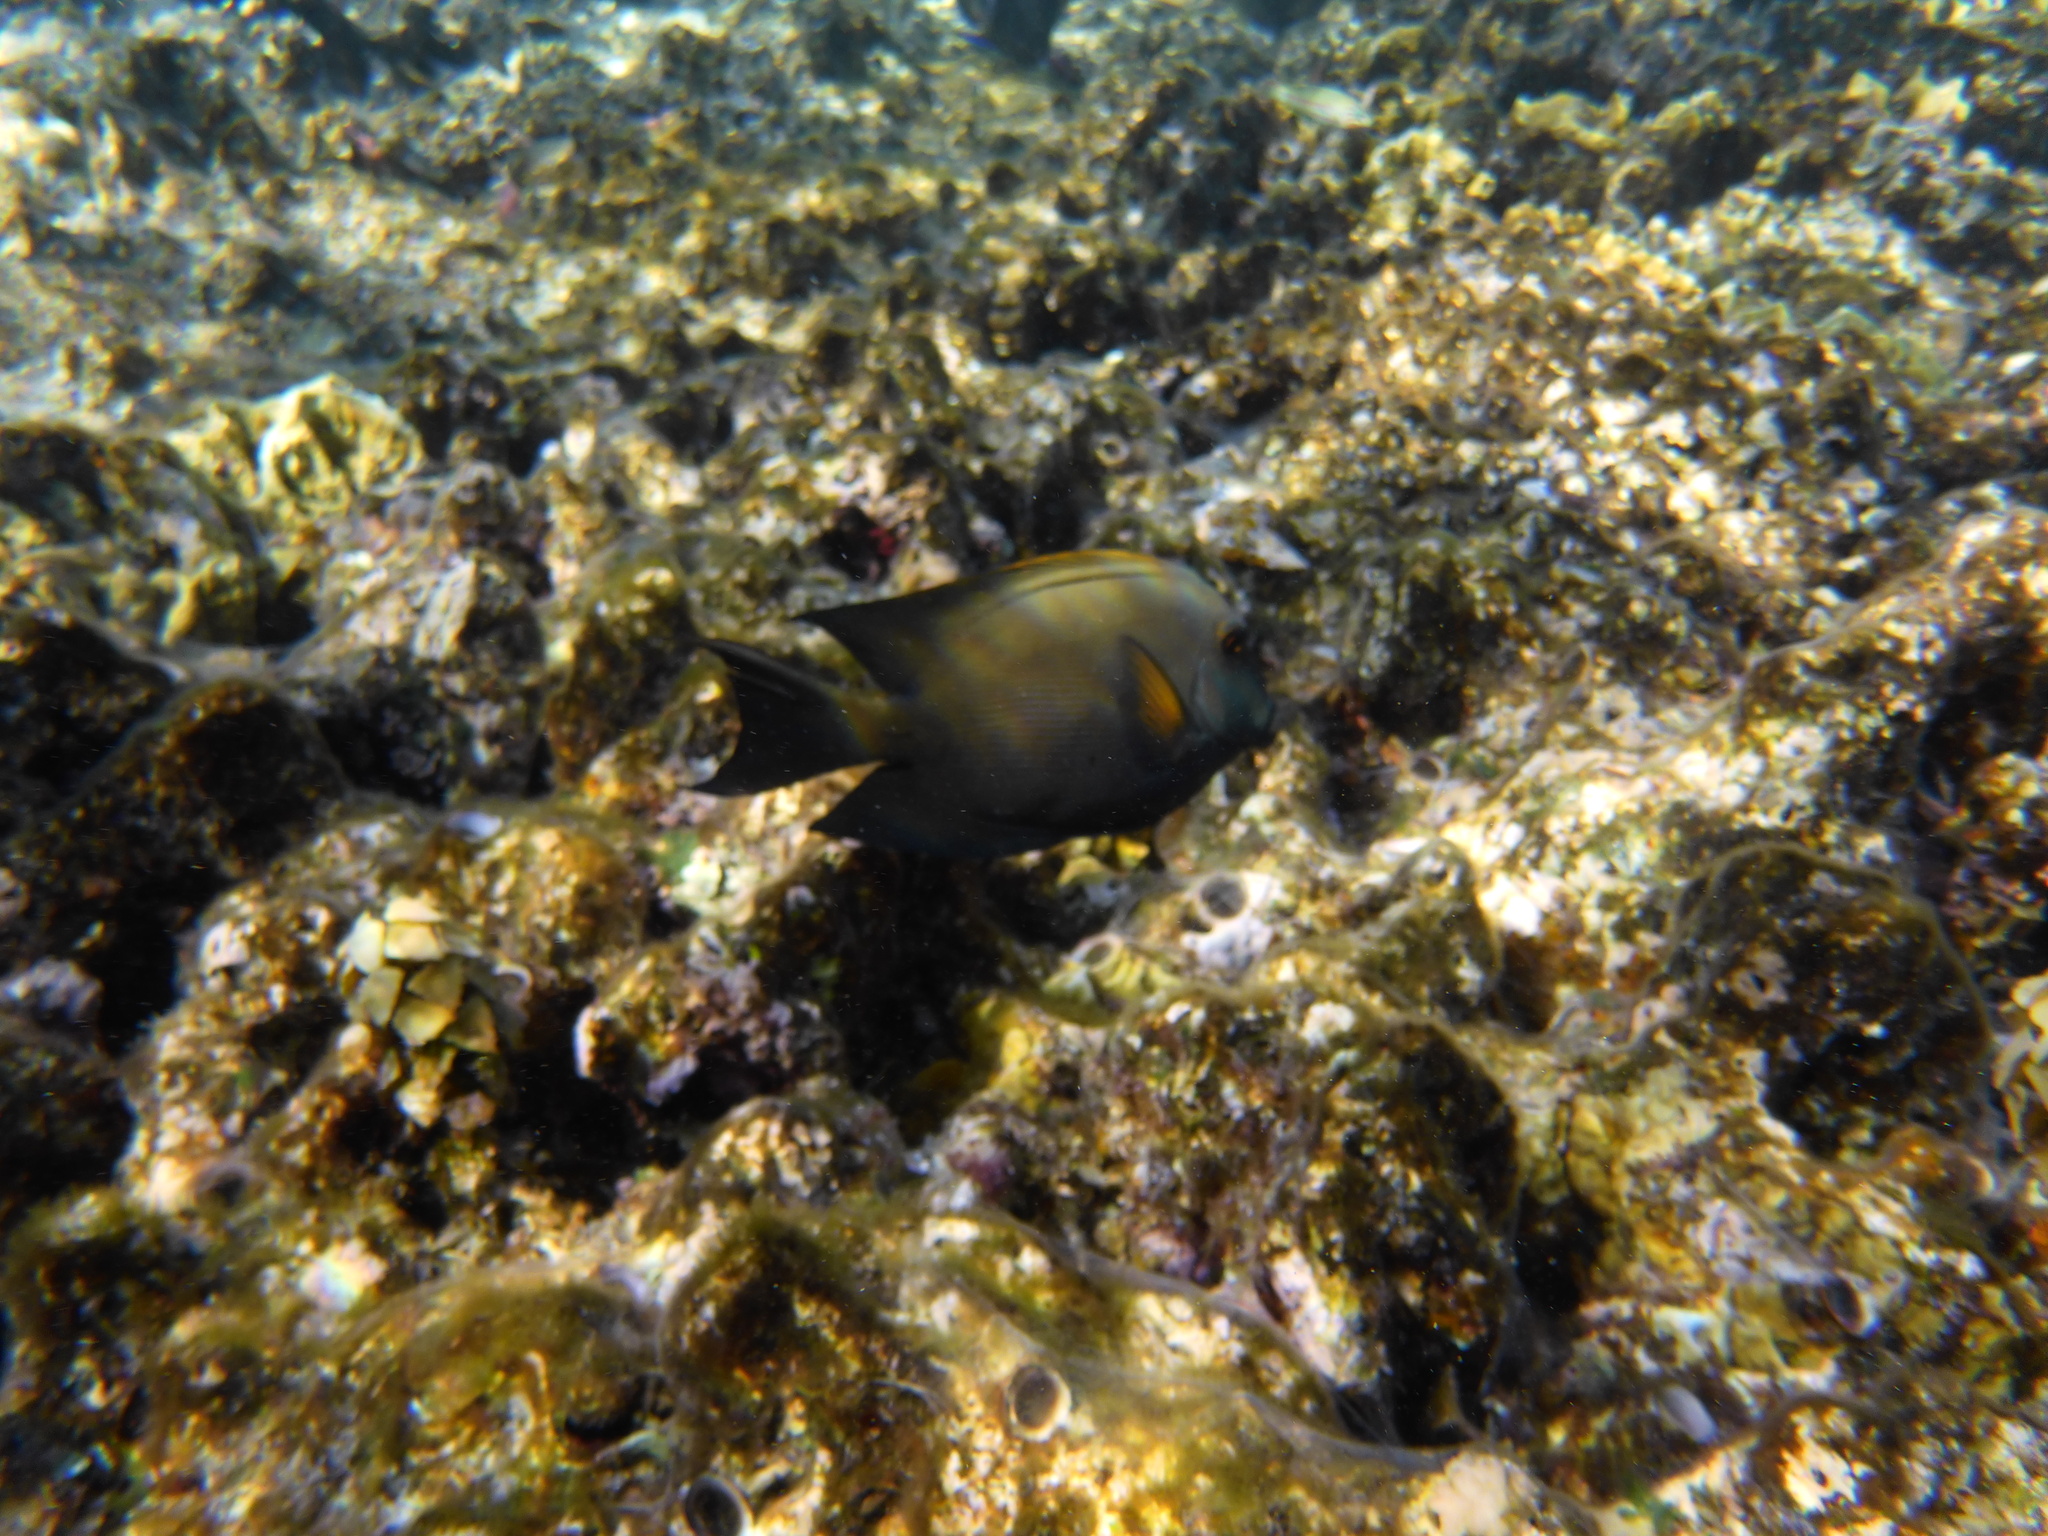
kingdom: Animalia
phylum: Chordata
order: Perciformes
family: Acanthuridae
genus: Ctenochaetus
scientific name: Ctenochaetus striatus
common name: Bristle-toothed surgeonfish
